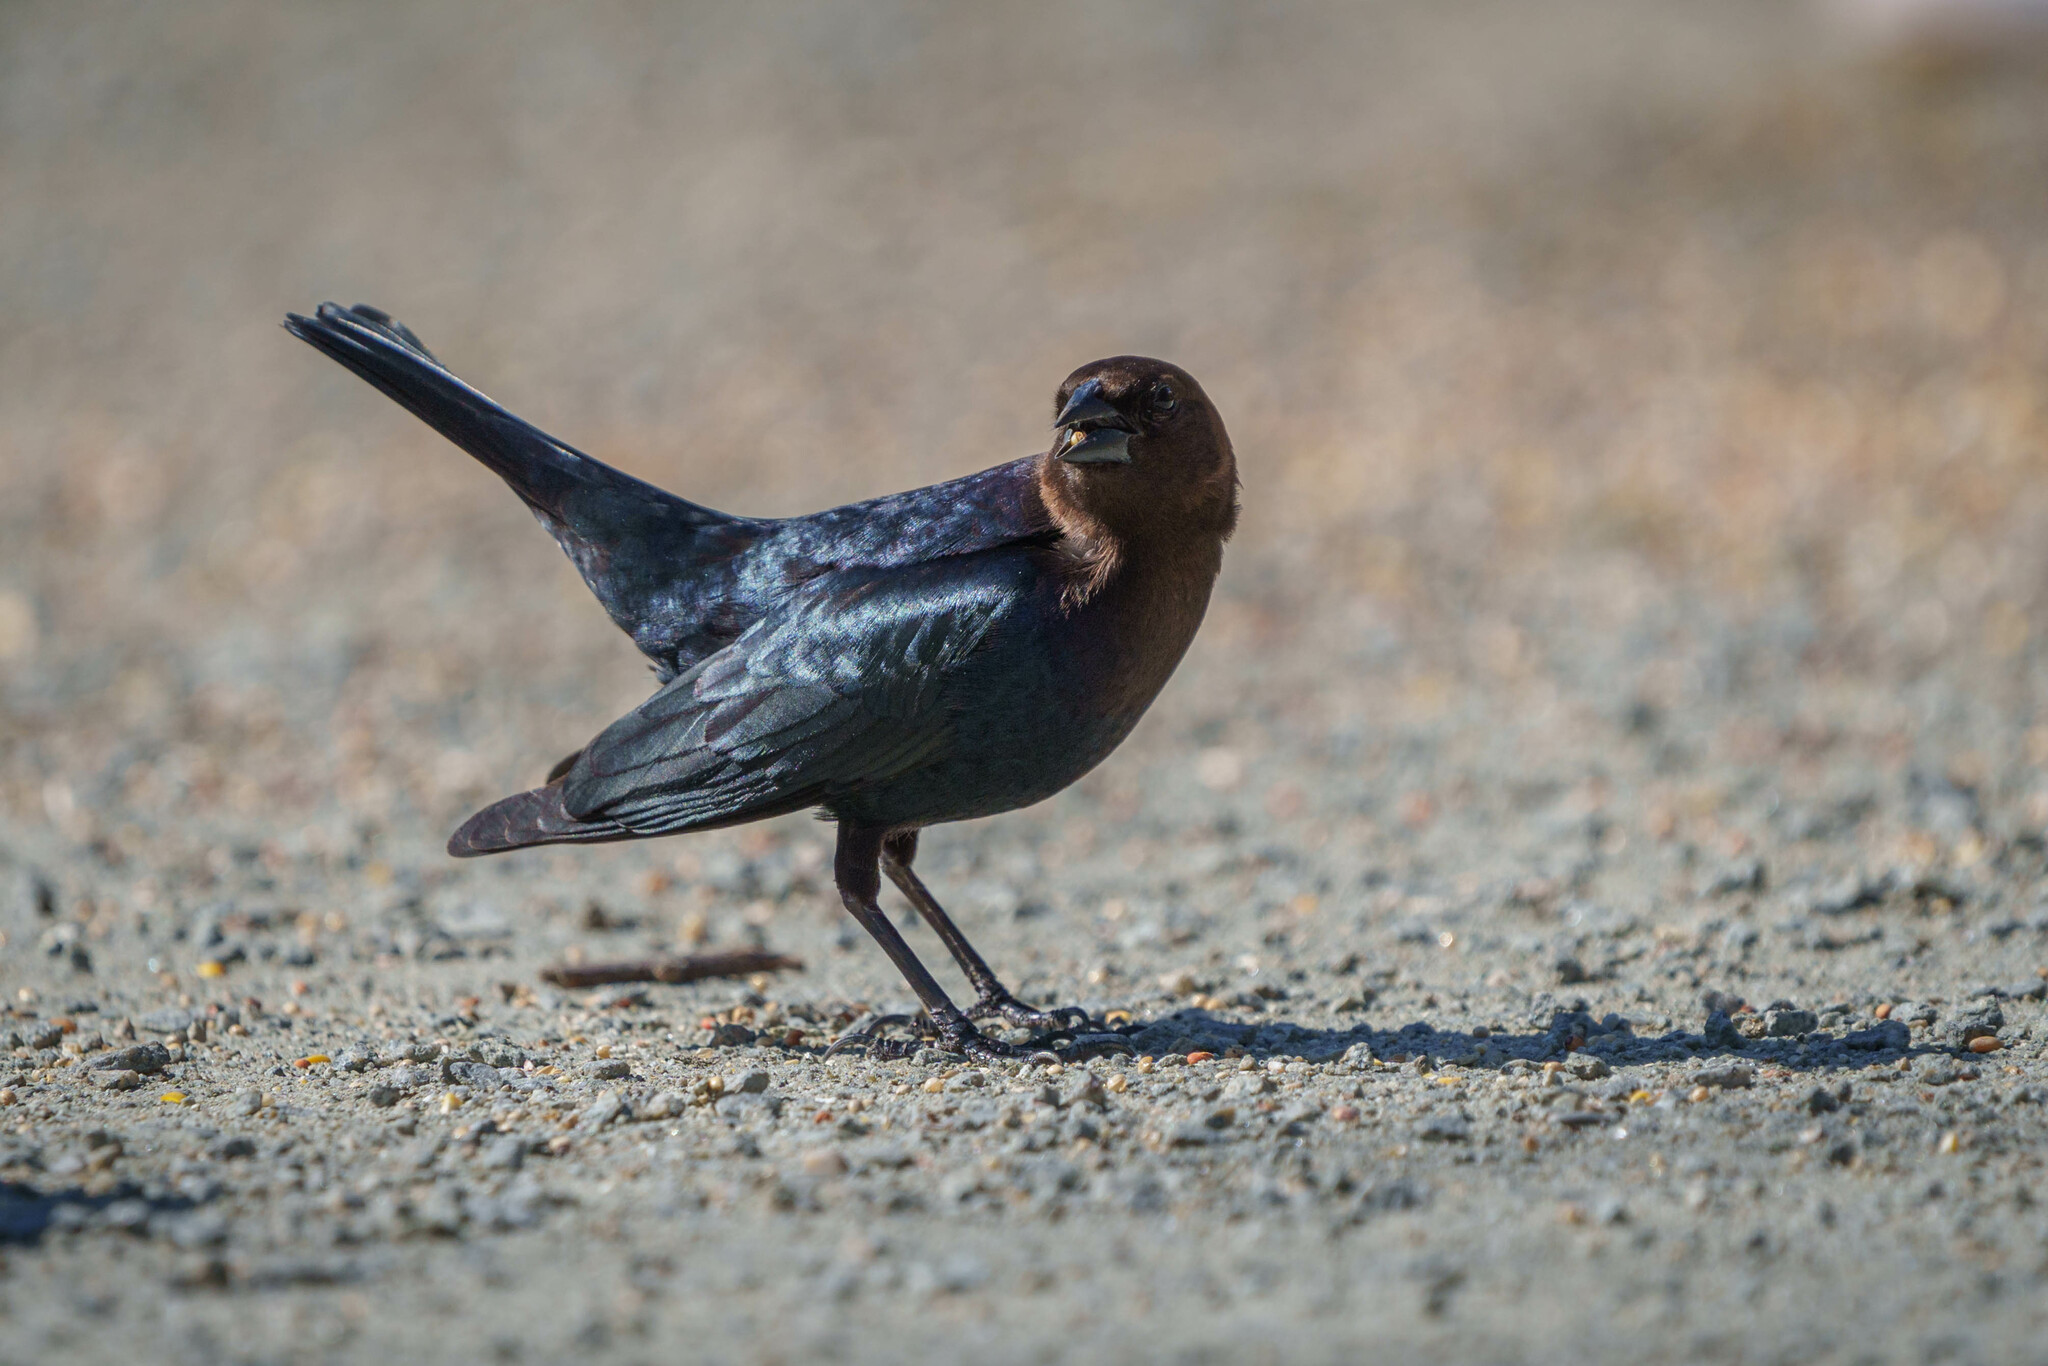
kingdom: Animalia
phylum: Chordata
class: Aves
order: Passeriformes
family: Icteridae
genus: Molothrus
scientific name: Molothrus ater
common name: Brown-headed cowbird
